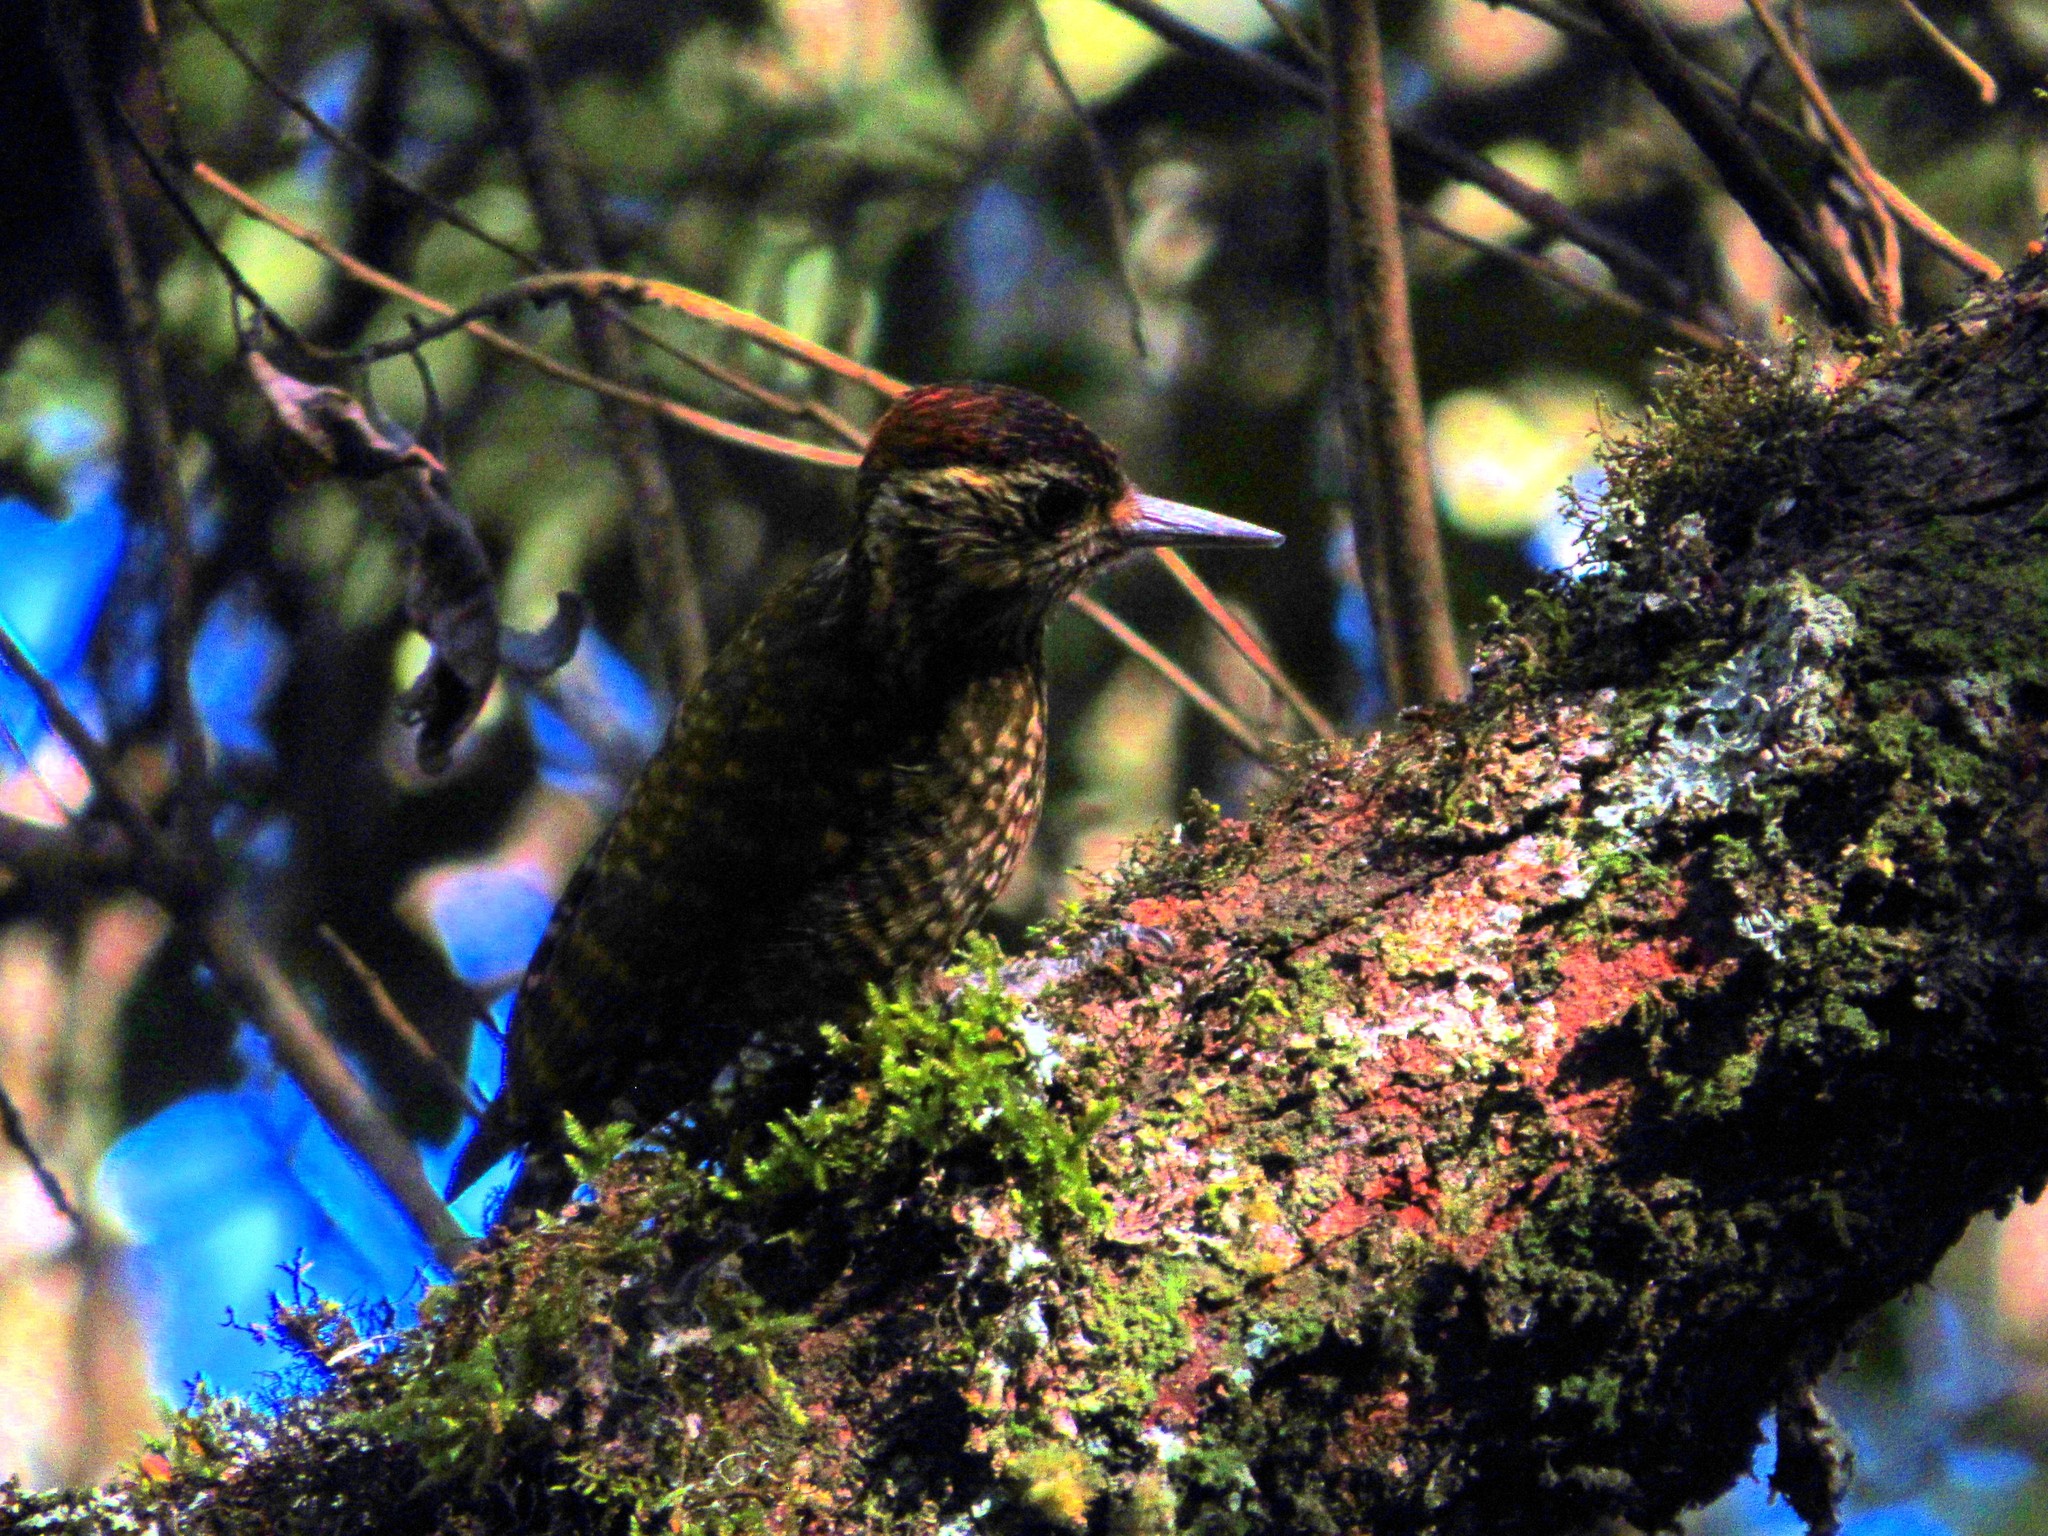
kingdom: Animalia
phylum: Chordata
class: Aves
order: Piciformes
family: Picidae
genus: Veniliornis
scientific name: Veniliornis spilogaster
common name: White-spotted woodpecker
